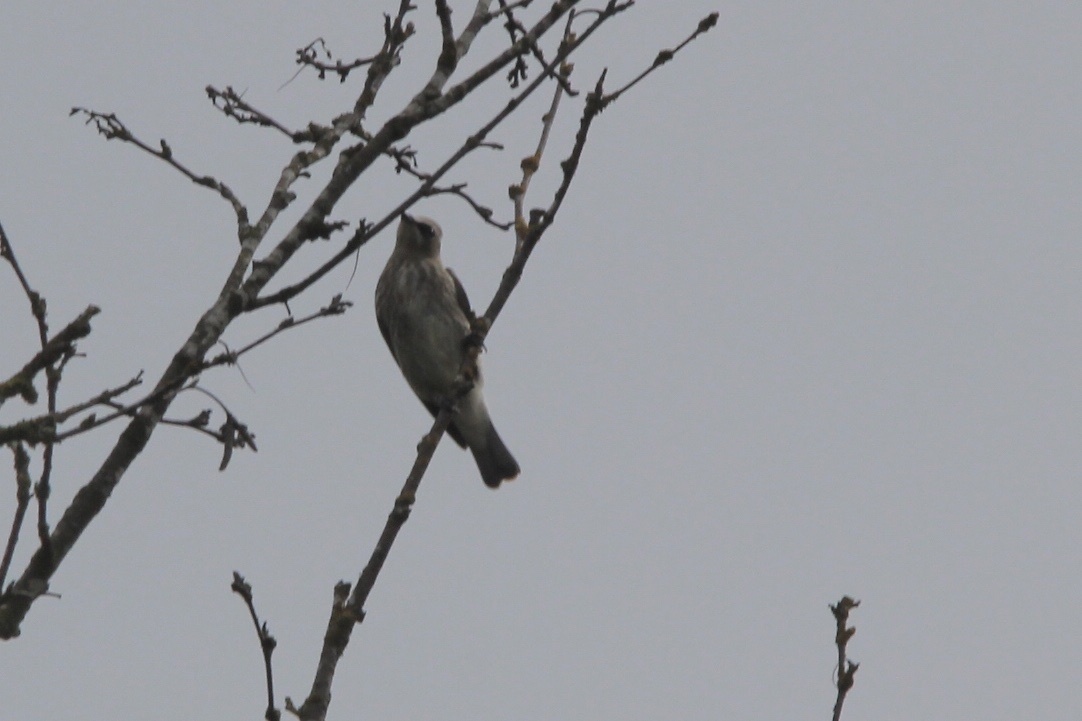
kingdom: Animalia
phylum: Chordata
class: Aves
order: Passeriformes
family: Bombycillidae
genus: Bombycilla
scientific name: Bombycilla cedrorum
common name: Cedar waxwing
